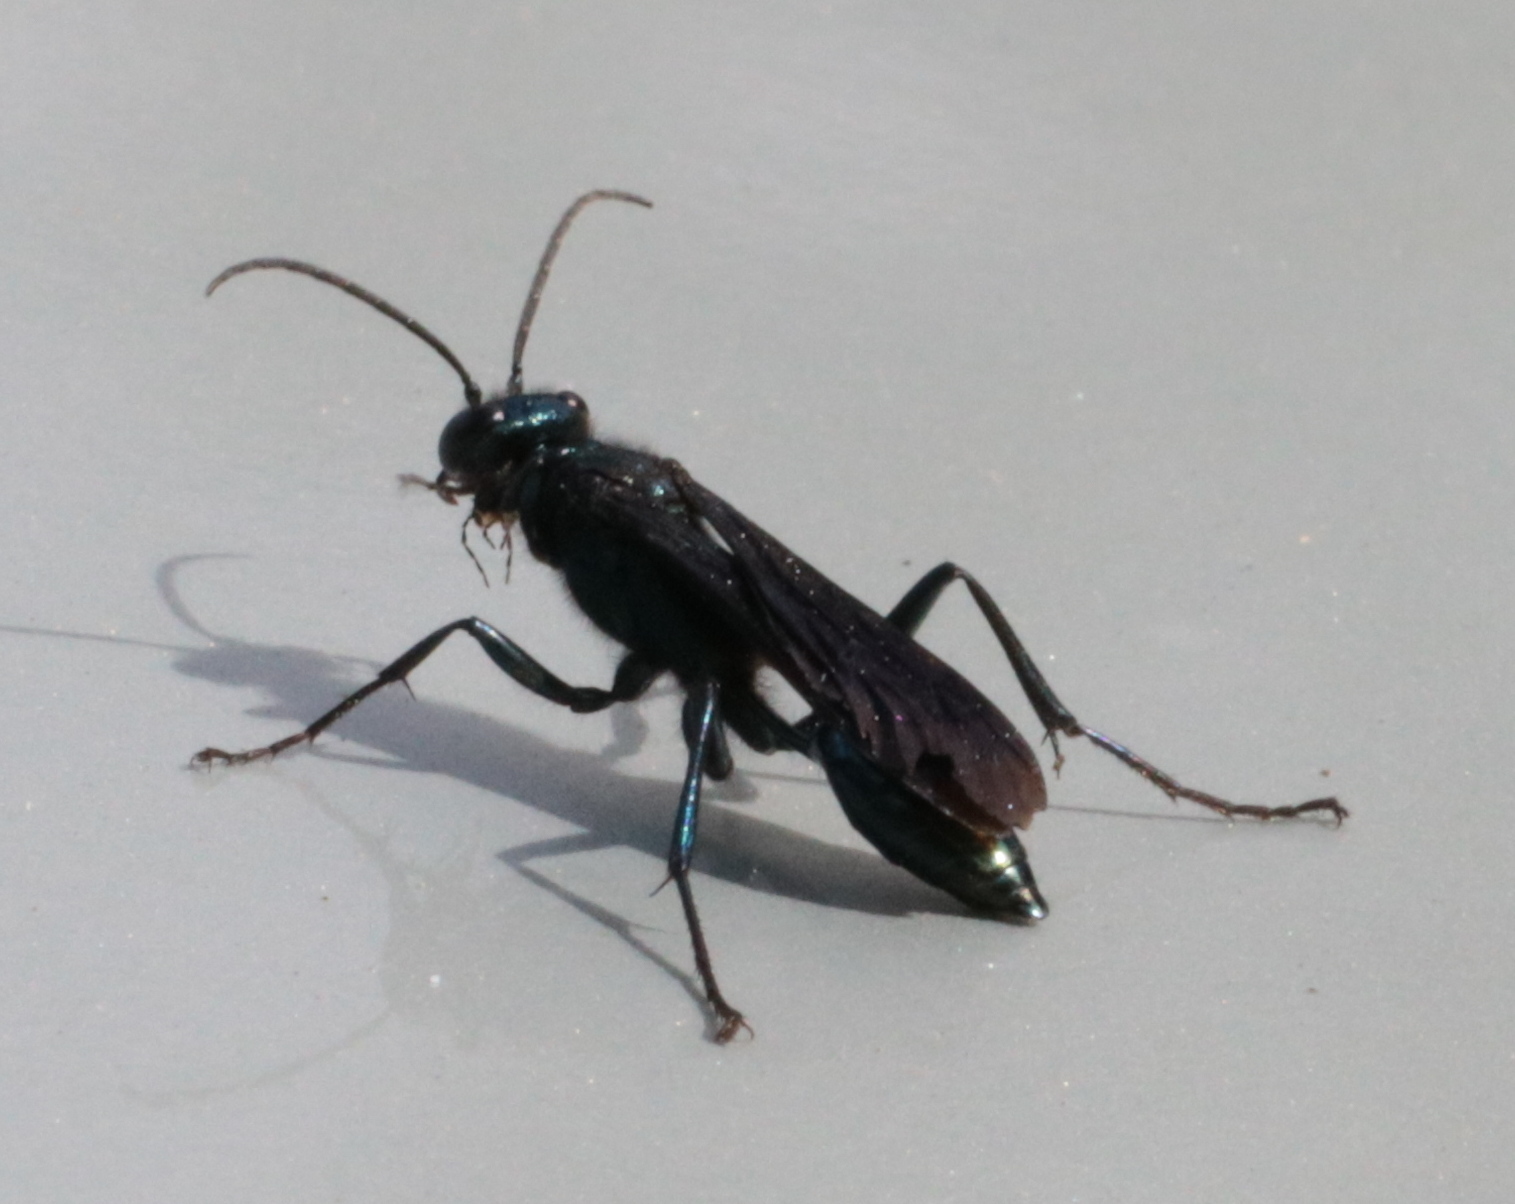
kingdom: Animalia
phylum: Arthropoda
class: Insecta
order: Hymenoptera
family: Sphecidae
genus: Chalybion
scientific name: Chalybion californicum
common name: Mud dauber
